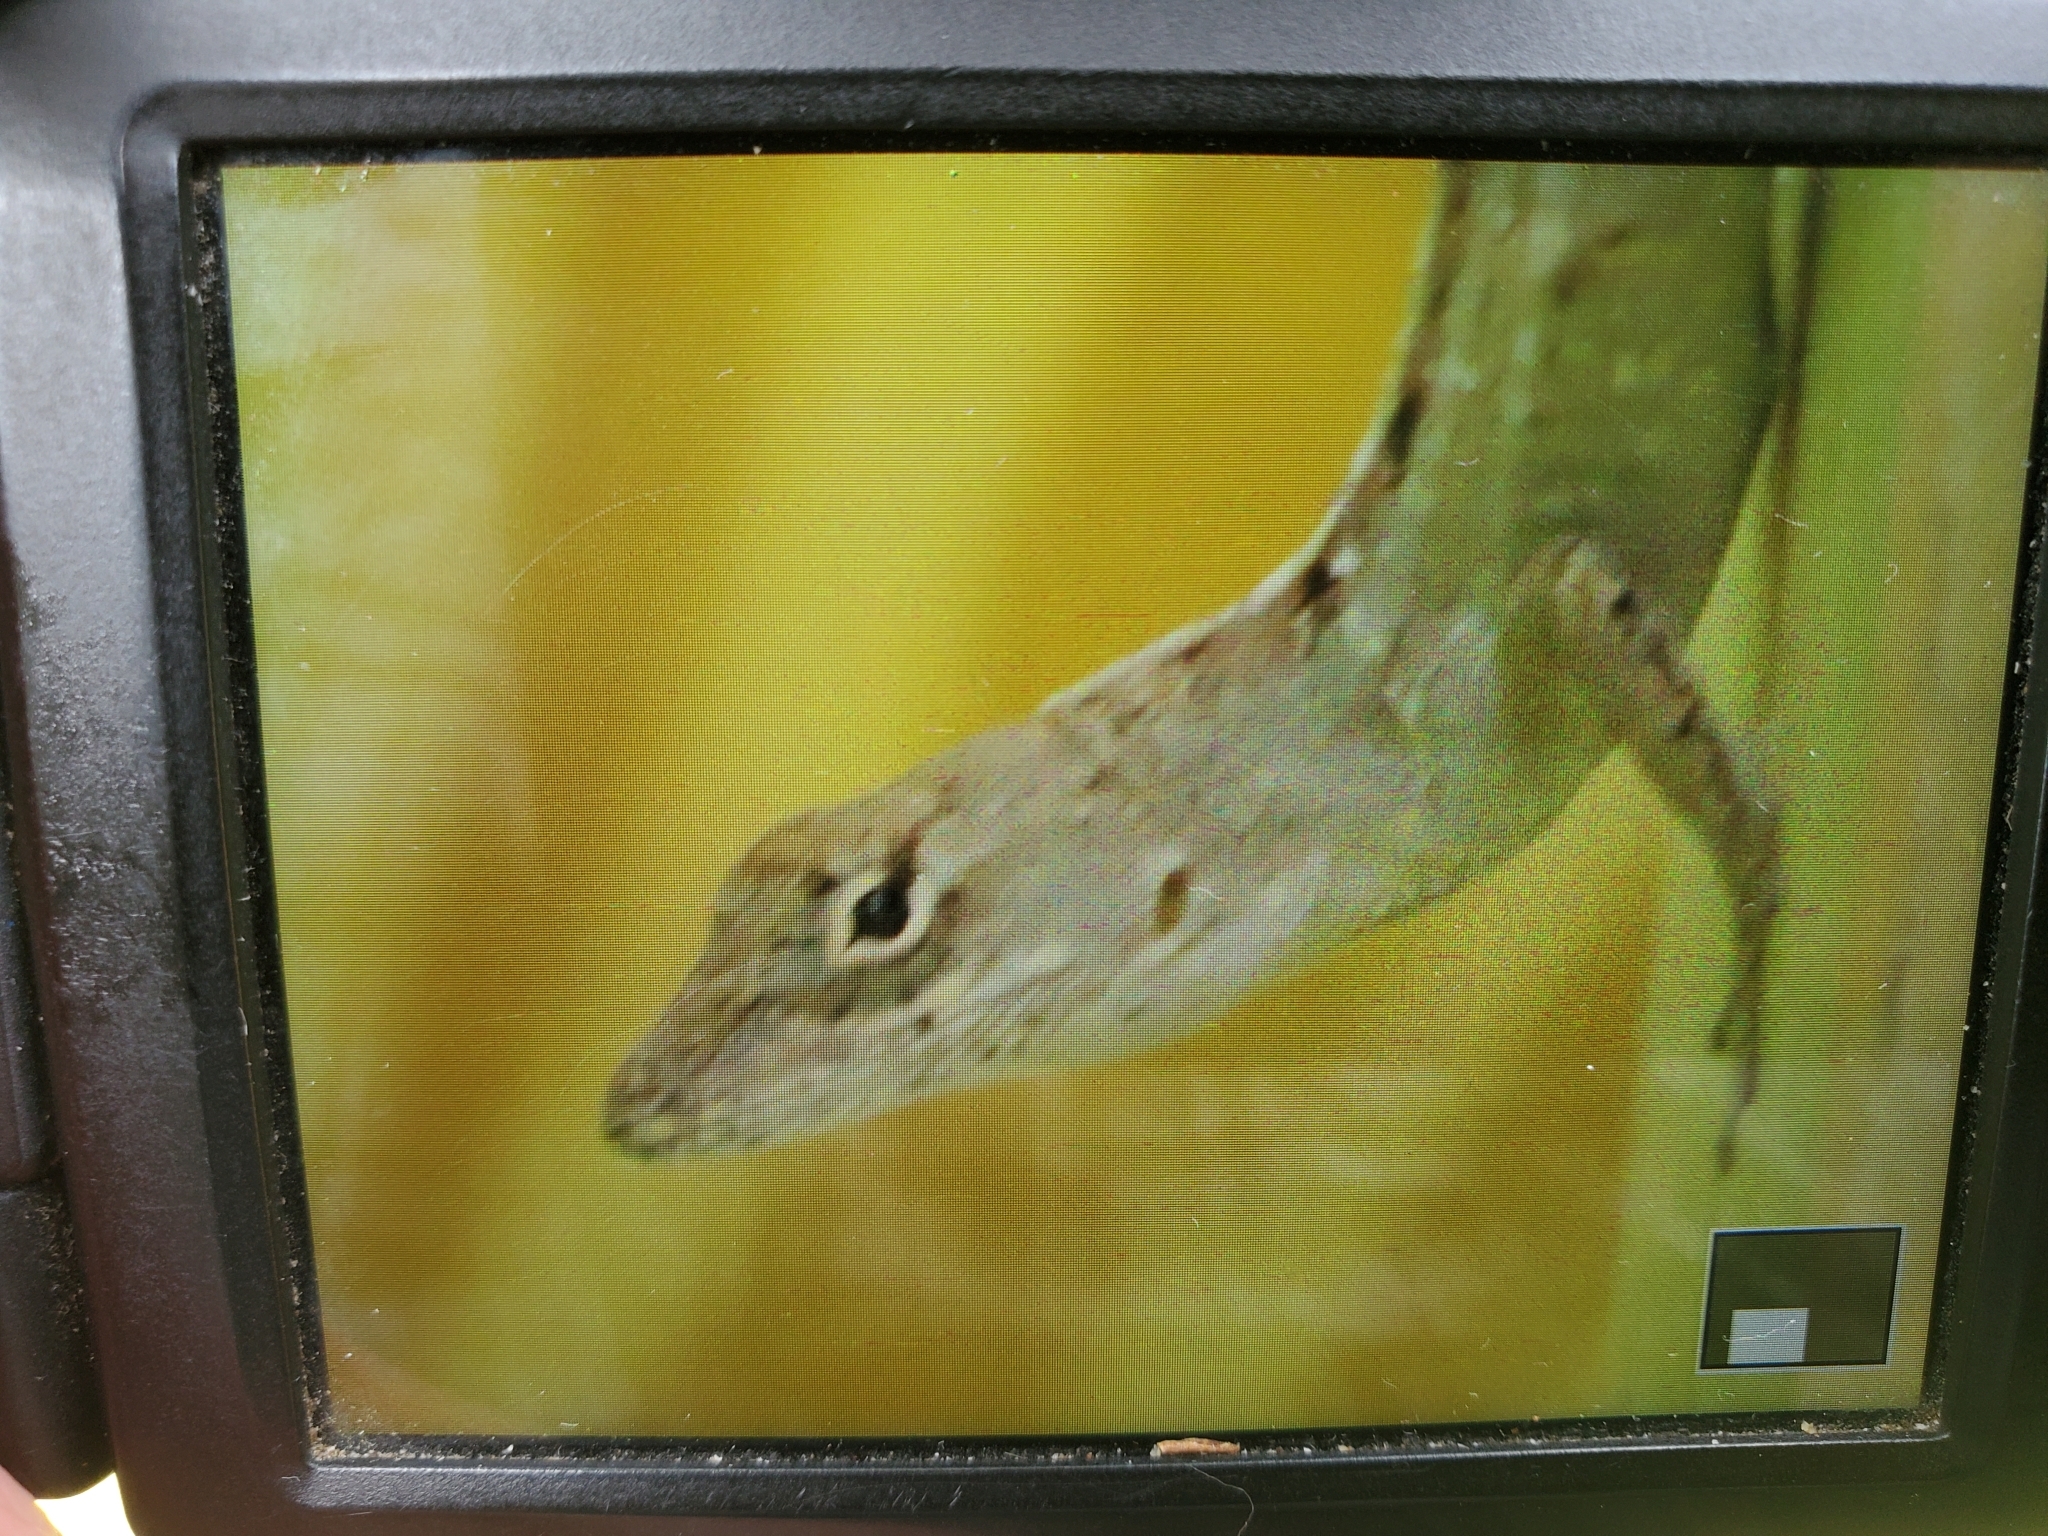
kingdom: Animalia
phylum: Chordata
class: Squamata
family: Dactyloidae
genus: Anolis
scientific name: Anolis sagrei
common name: Brown anole
